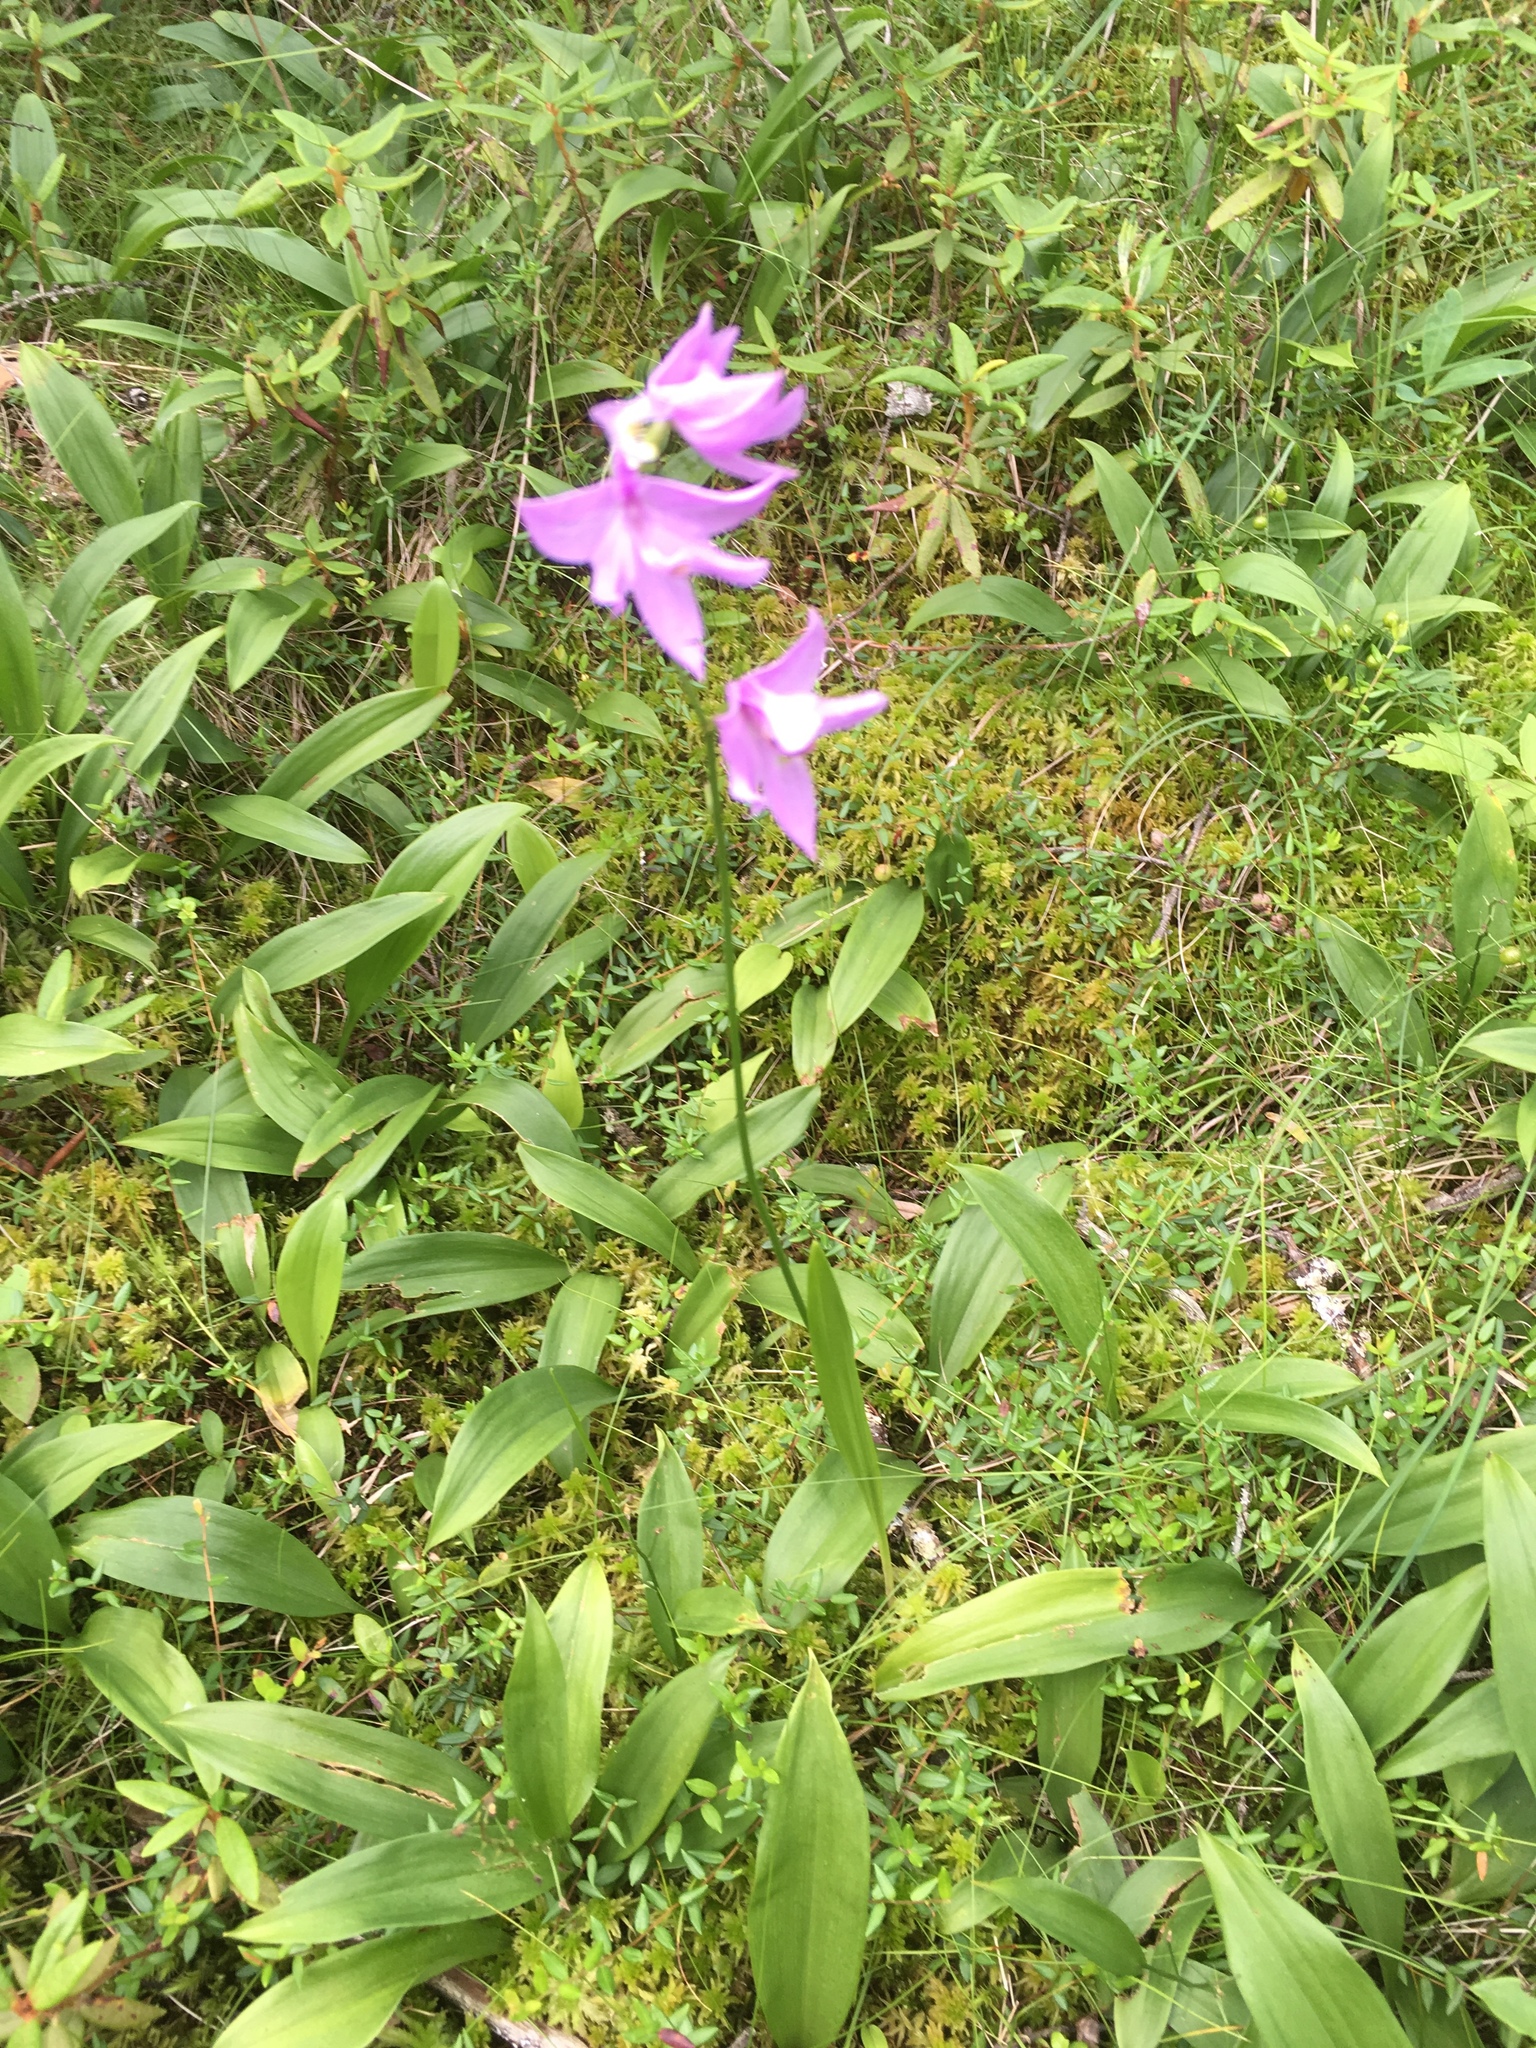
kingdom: Plantae
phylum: Tracheophyta
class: Liliopsida
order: Asparagales
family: Orchidaceae
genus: Calopogon
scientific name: Calopogon tuberosus
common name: Grass-pink
